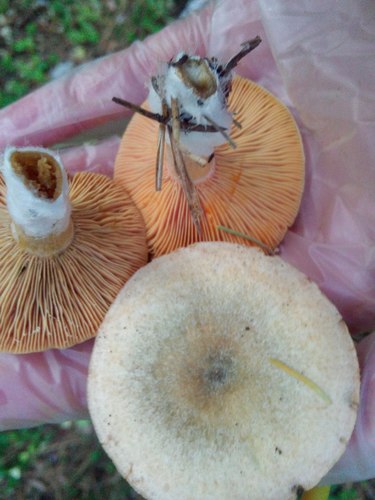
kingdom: Fungi
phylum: Basidiomycota
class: Agaricomycetes
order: Russulales
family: Russulaceae
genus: Lactarius
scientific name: Lactarius deliciosus
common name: Saffron milk-cap
